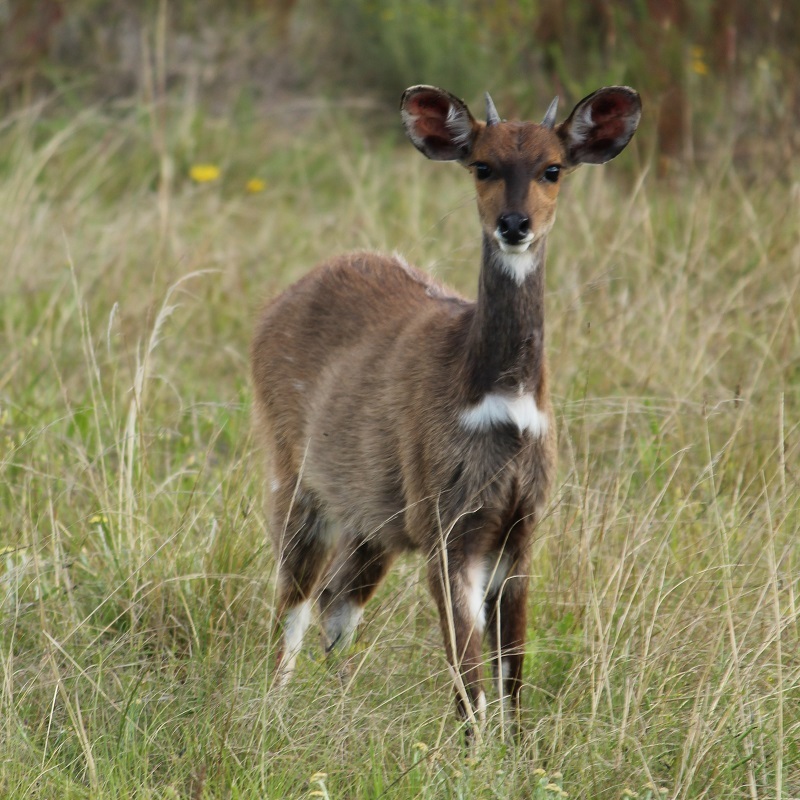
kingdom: Animalia
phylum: Chordata
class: Mammalia
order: Artiodactyla
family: Bovidae
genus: Tragelaphus
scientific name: Tragelaphus scriptus
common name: Bushbuck
